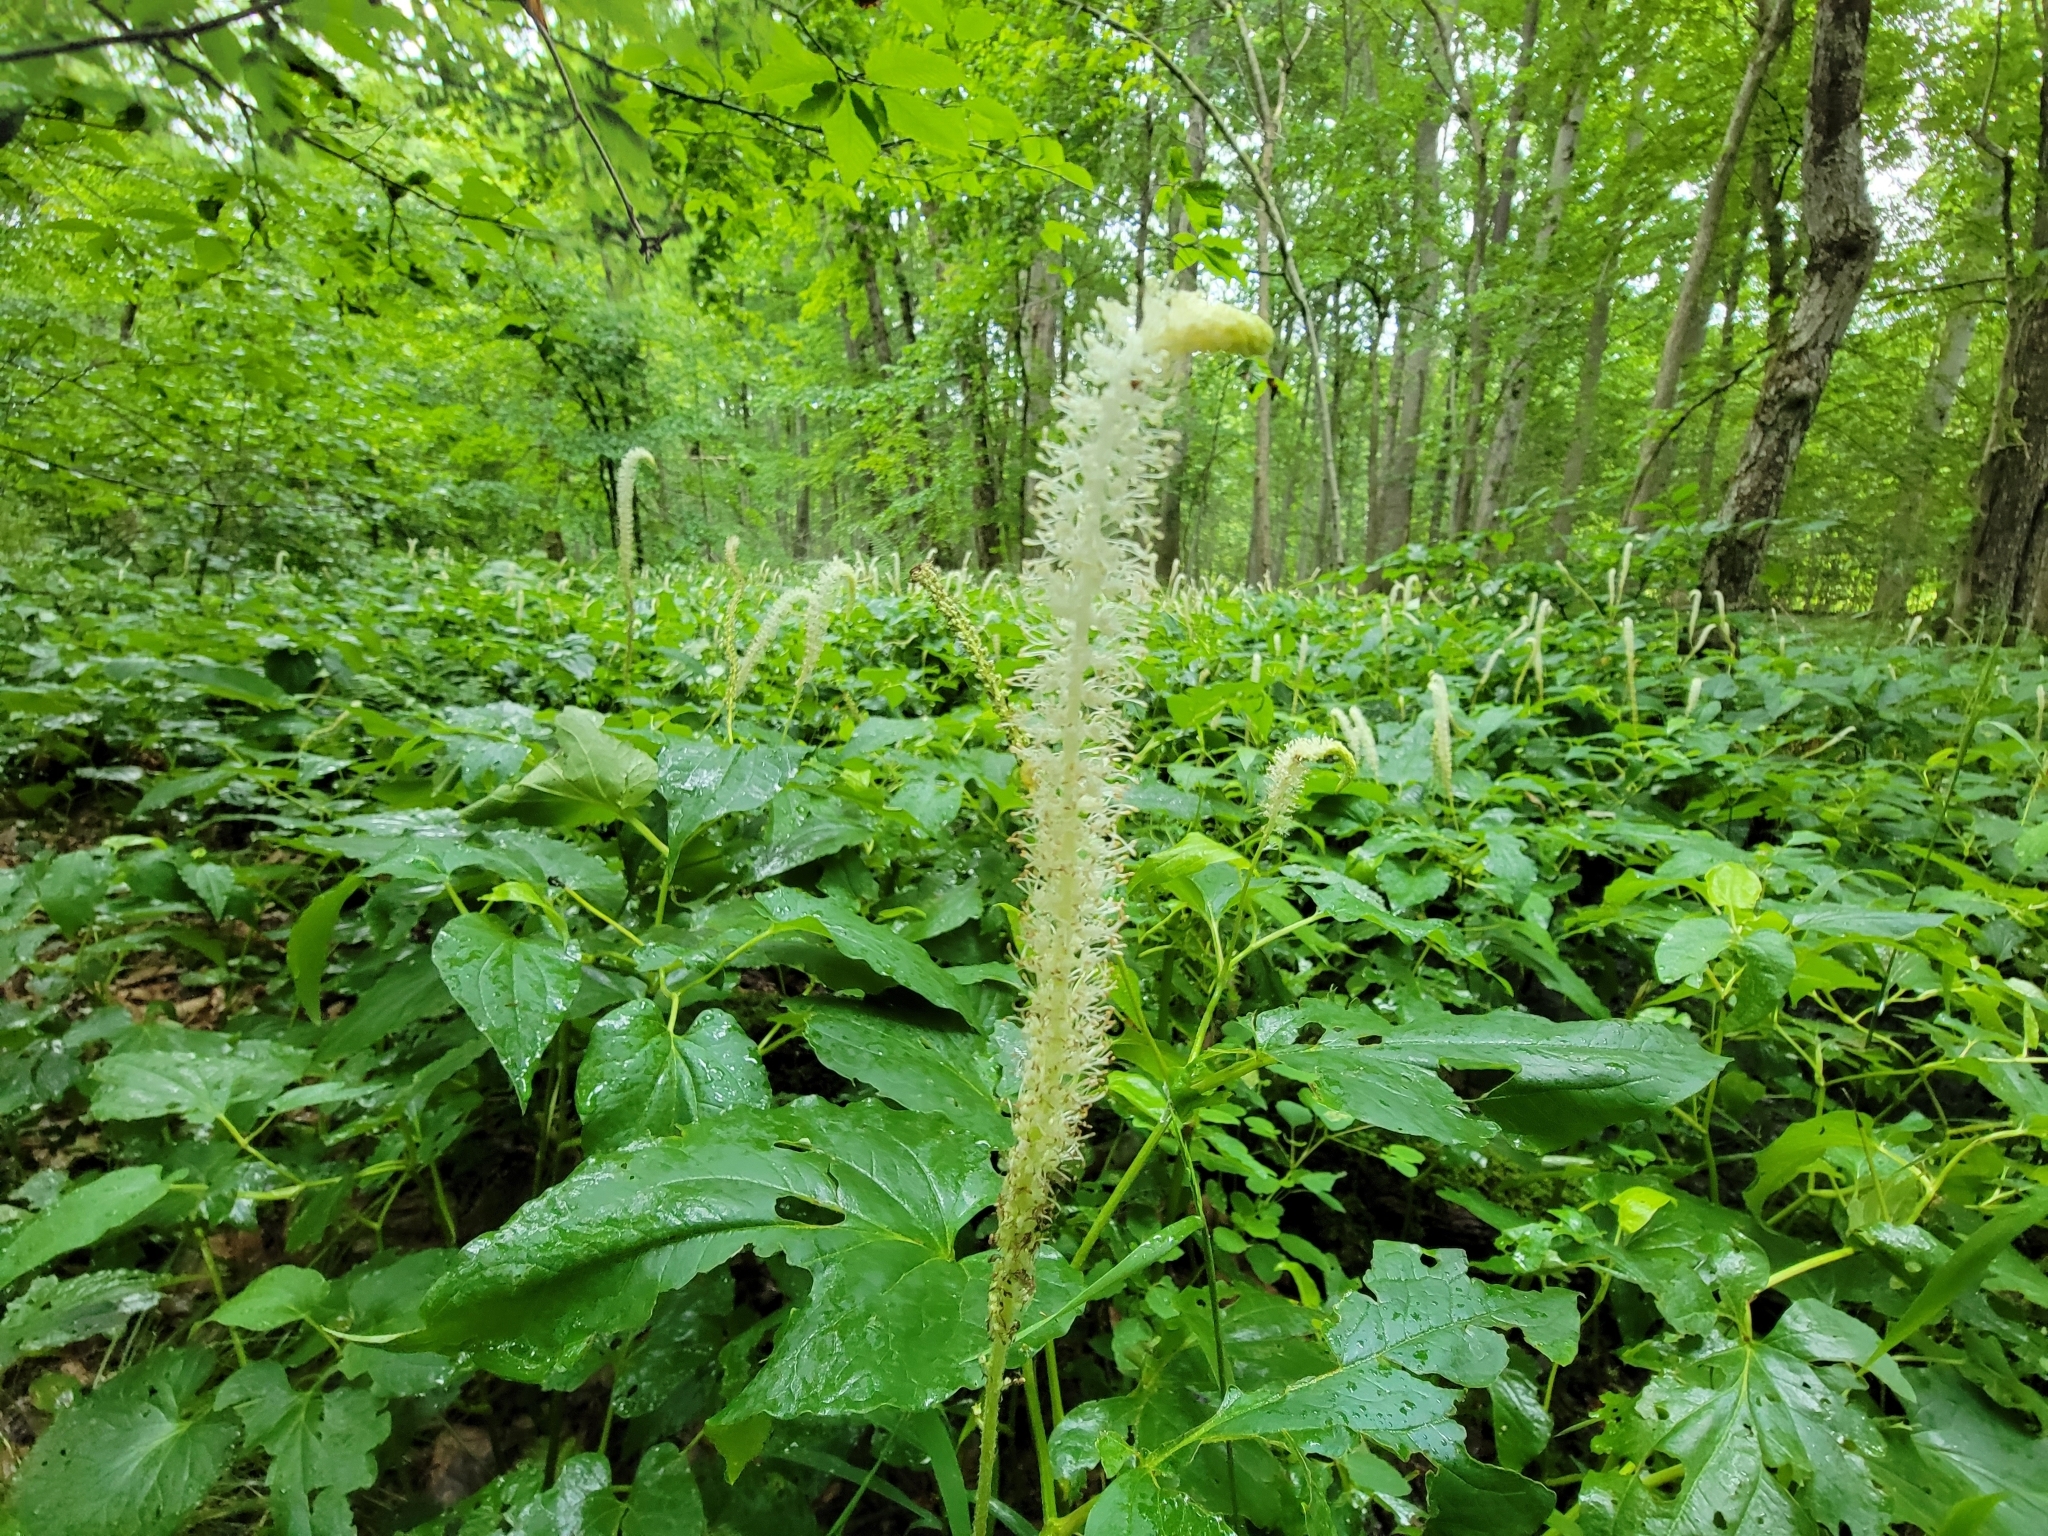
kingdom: Plantae
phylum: Tracheophyta
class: Magnoliopsida
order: Piperales
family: Saururaceae
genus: Saururus
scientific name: Saururus cernuus
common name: Lizard's-tail
